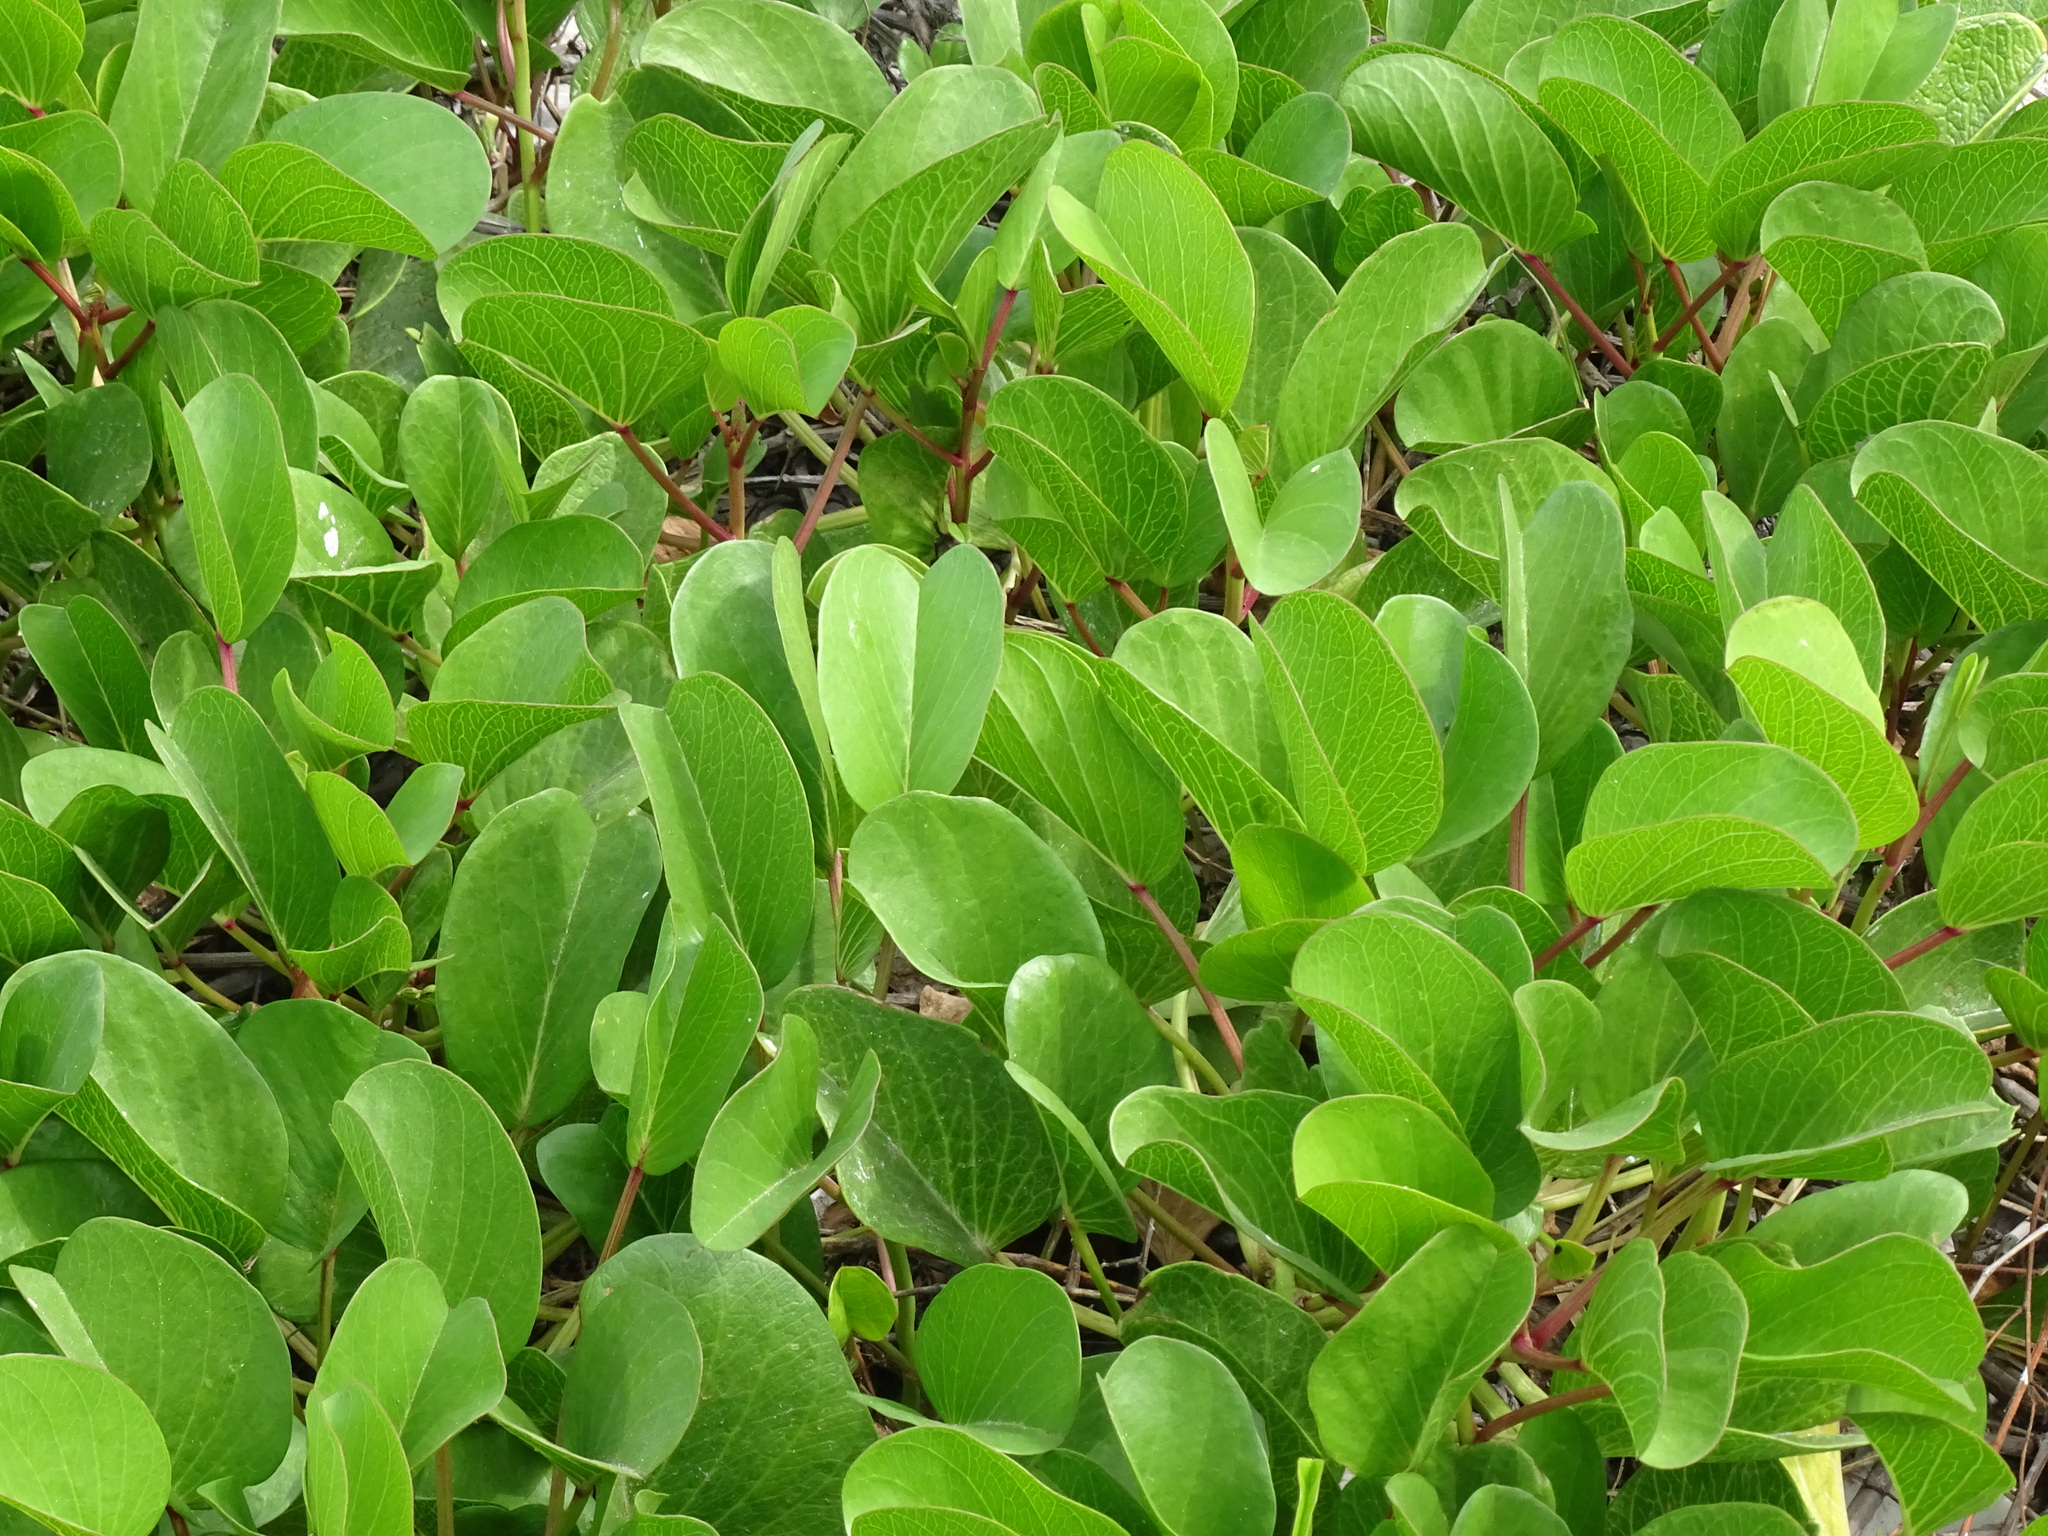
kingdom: Plantae
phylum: Tracheophyta
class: Magnoliopsida
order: Solanales
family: Convolvulaceae
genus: Ipomoea
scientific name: Ipomoea pes-caprae
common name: Beach morning glory
